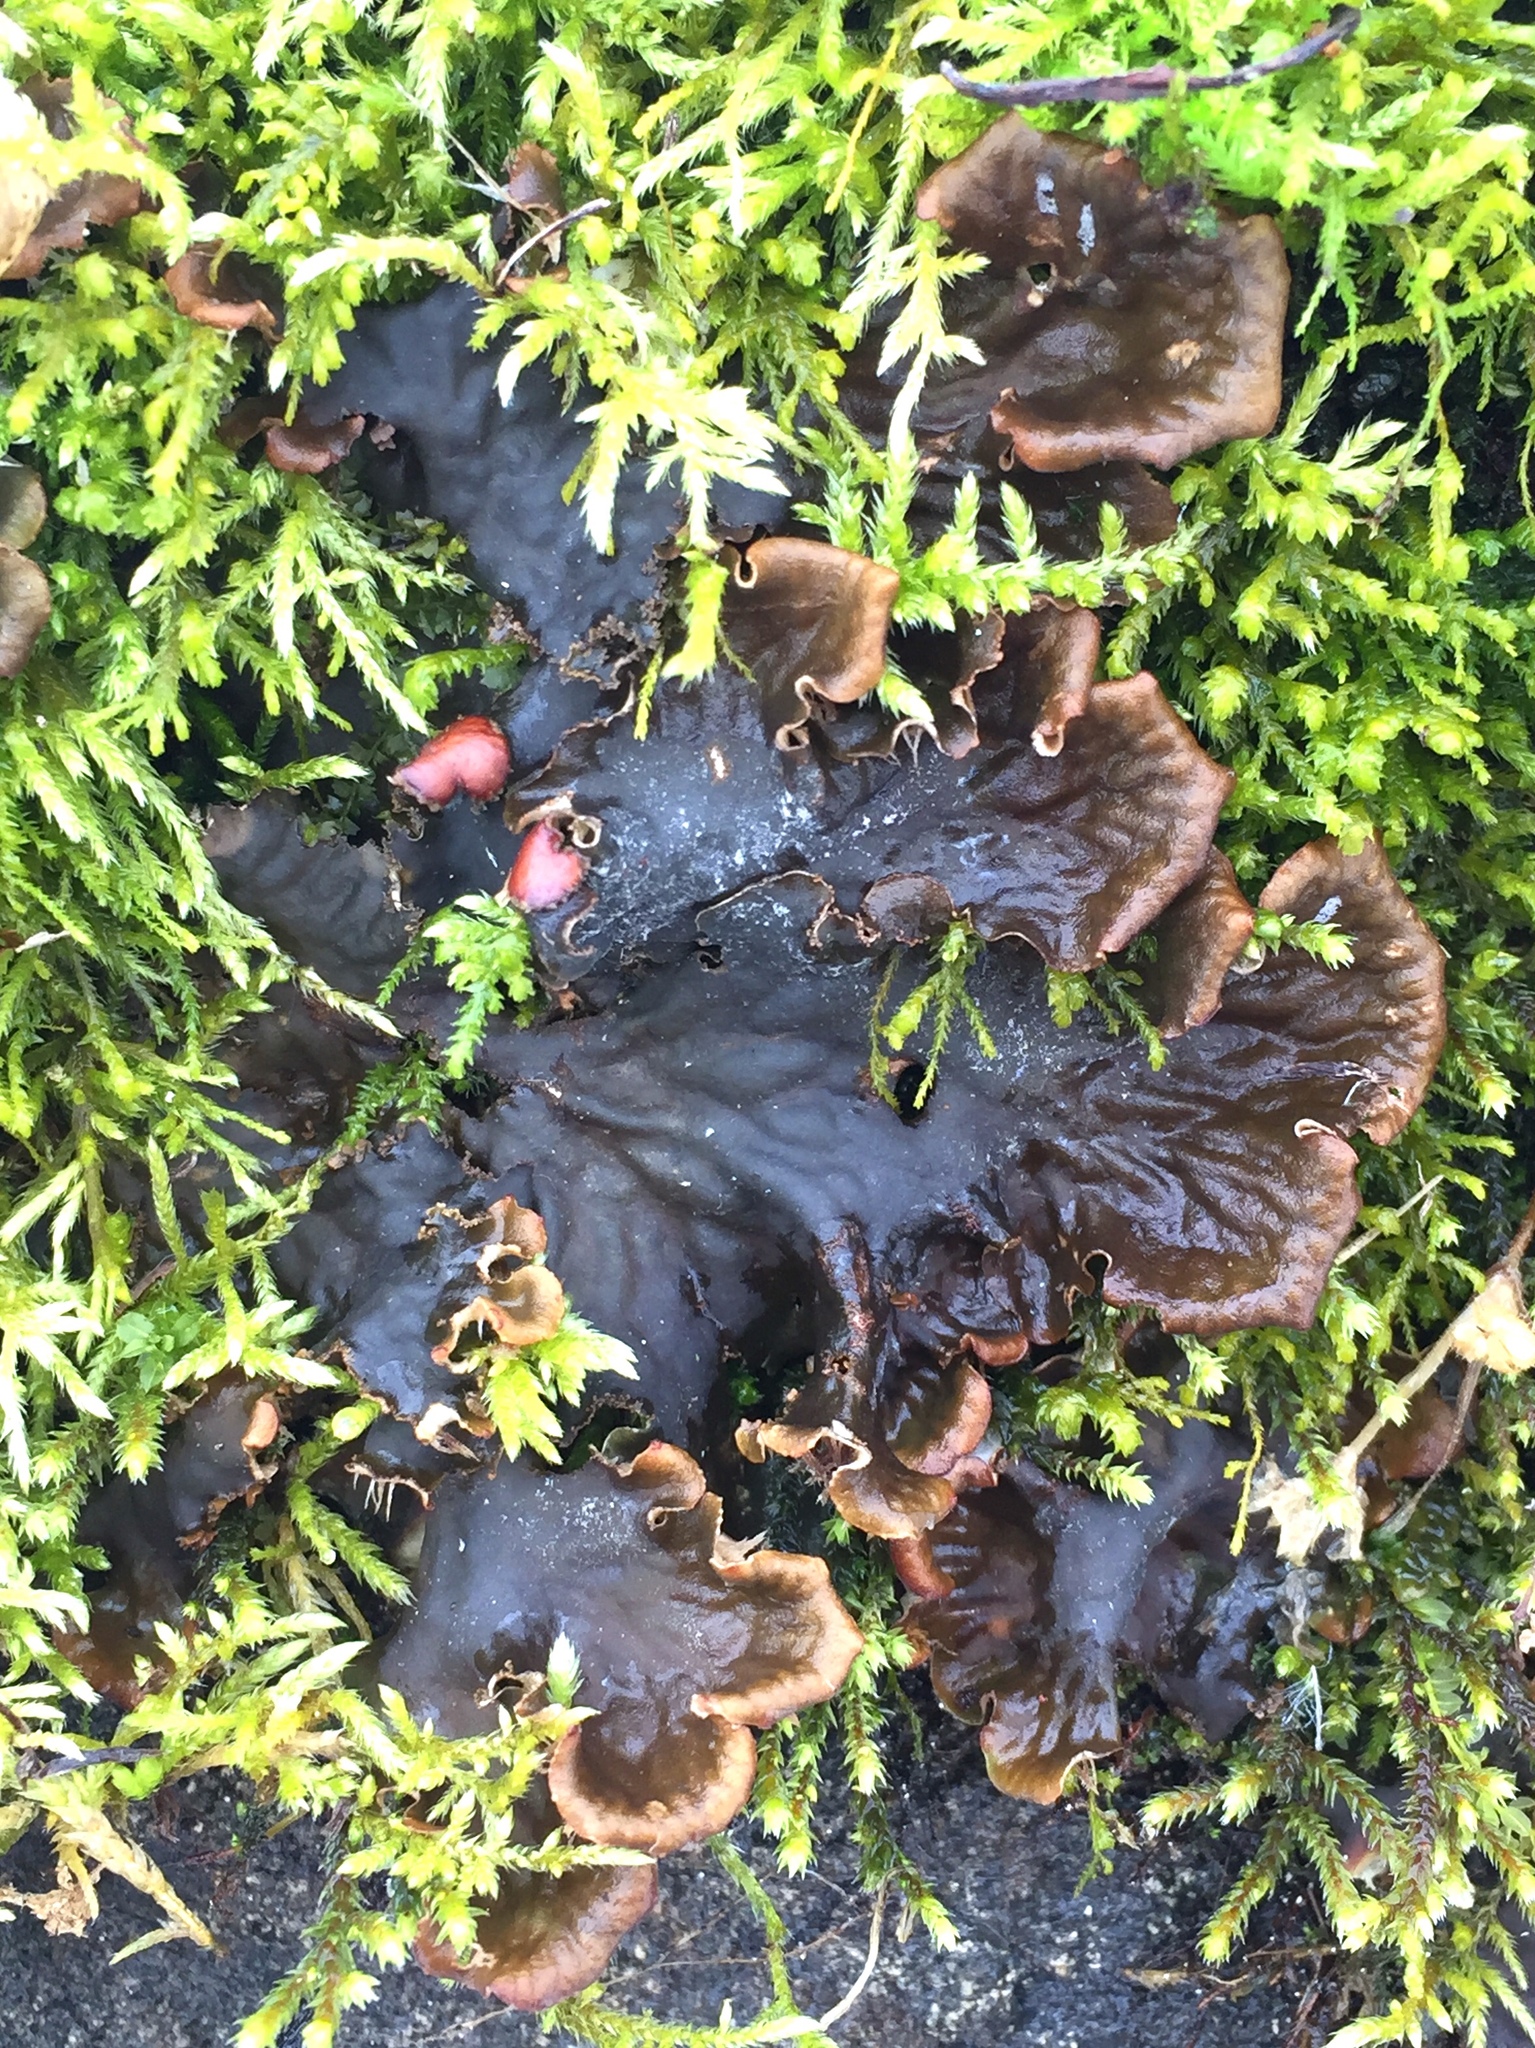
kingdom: Fungi
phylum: Ascomycota
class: Lecanoromycetes
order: Peltigerales
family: Peltigeraceae
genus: Peltigera
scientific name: Peltigera praetextata
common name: Scaly dog-lichen
